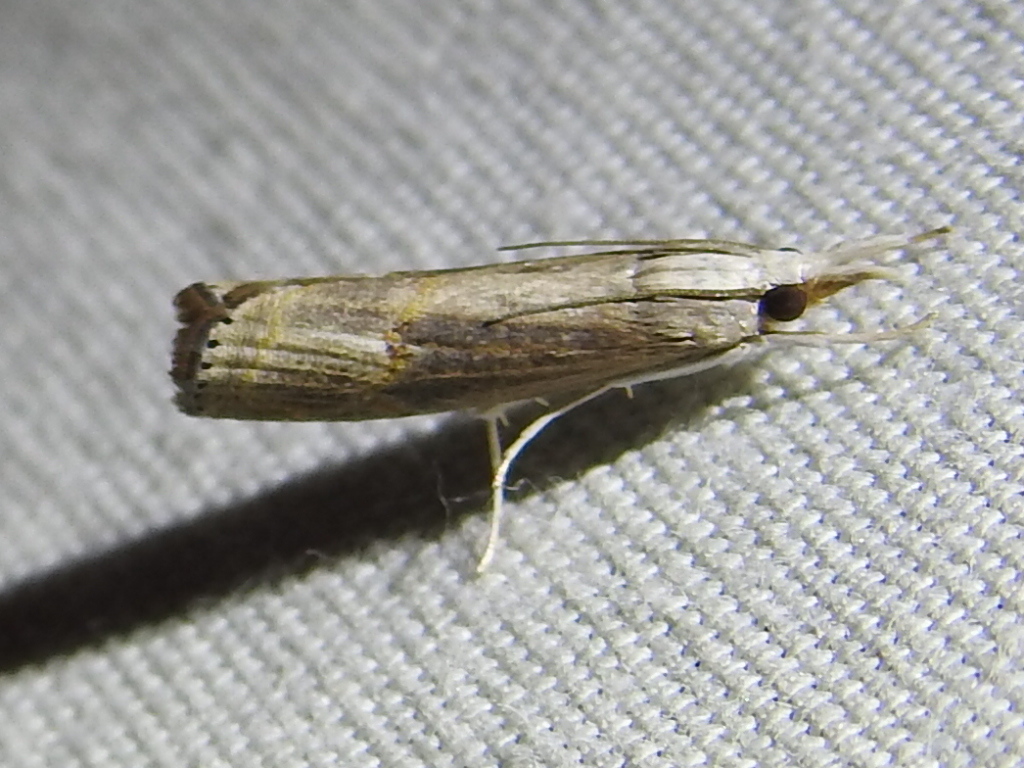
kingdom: Animalia
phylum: Arthropoda
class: Insecta
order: Lepidoptera
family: Crambidae
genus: Parapediasia
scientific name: Parapediasia teterellus
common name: Bluegrass webworm moth
